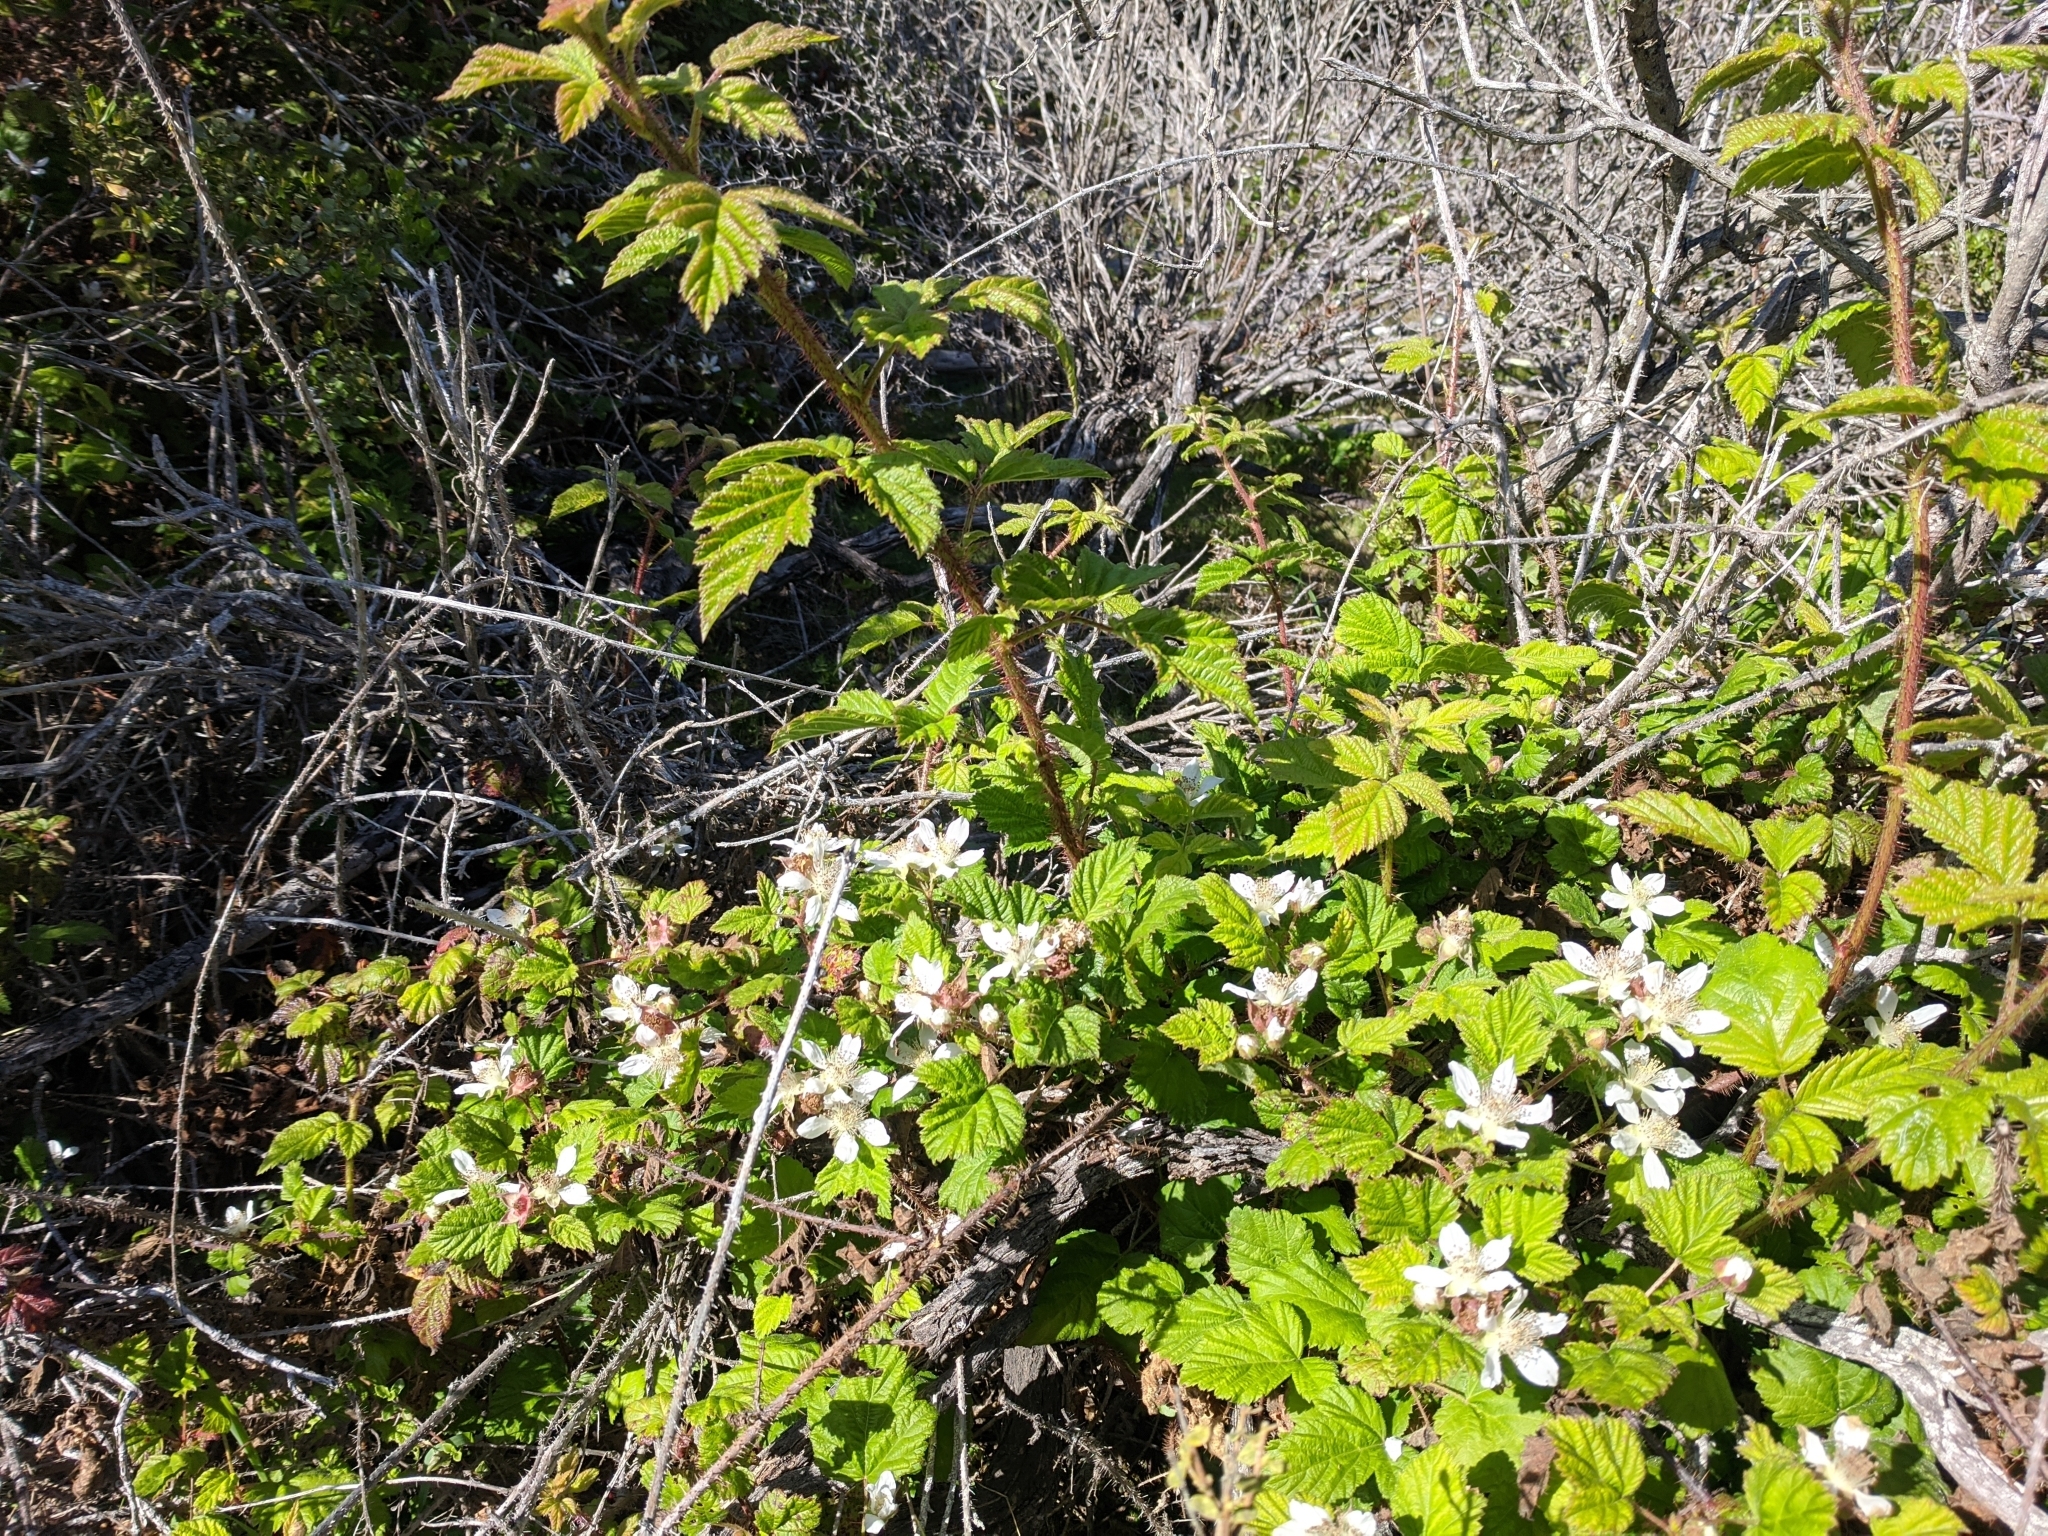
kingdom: Plantae
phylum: Tracheophyta
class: Magnoliopsida
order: Rosales
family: Rosaceae
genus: Rubus
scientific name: Rubus ursinus
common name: Pacific blackberry
